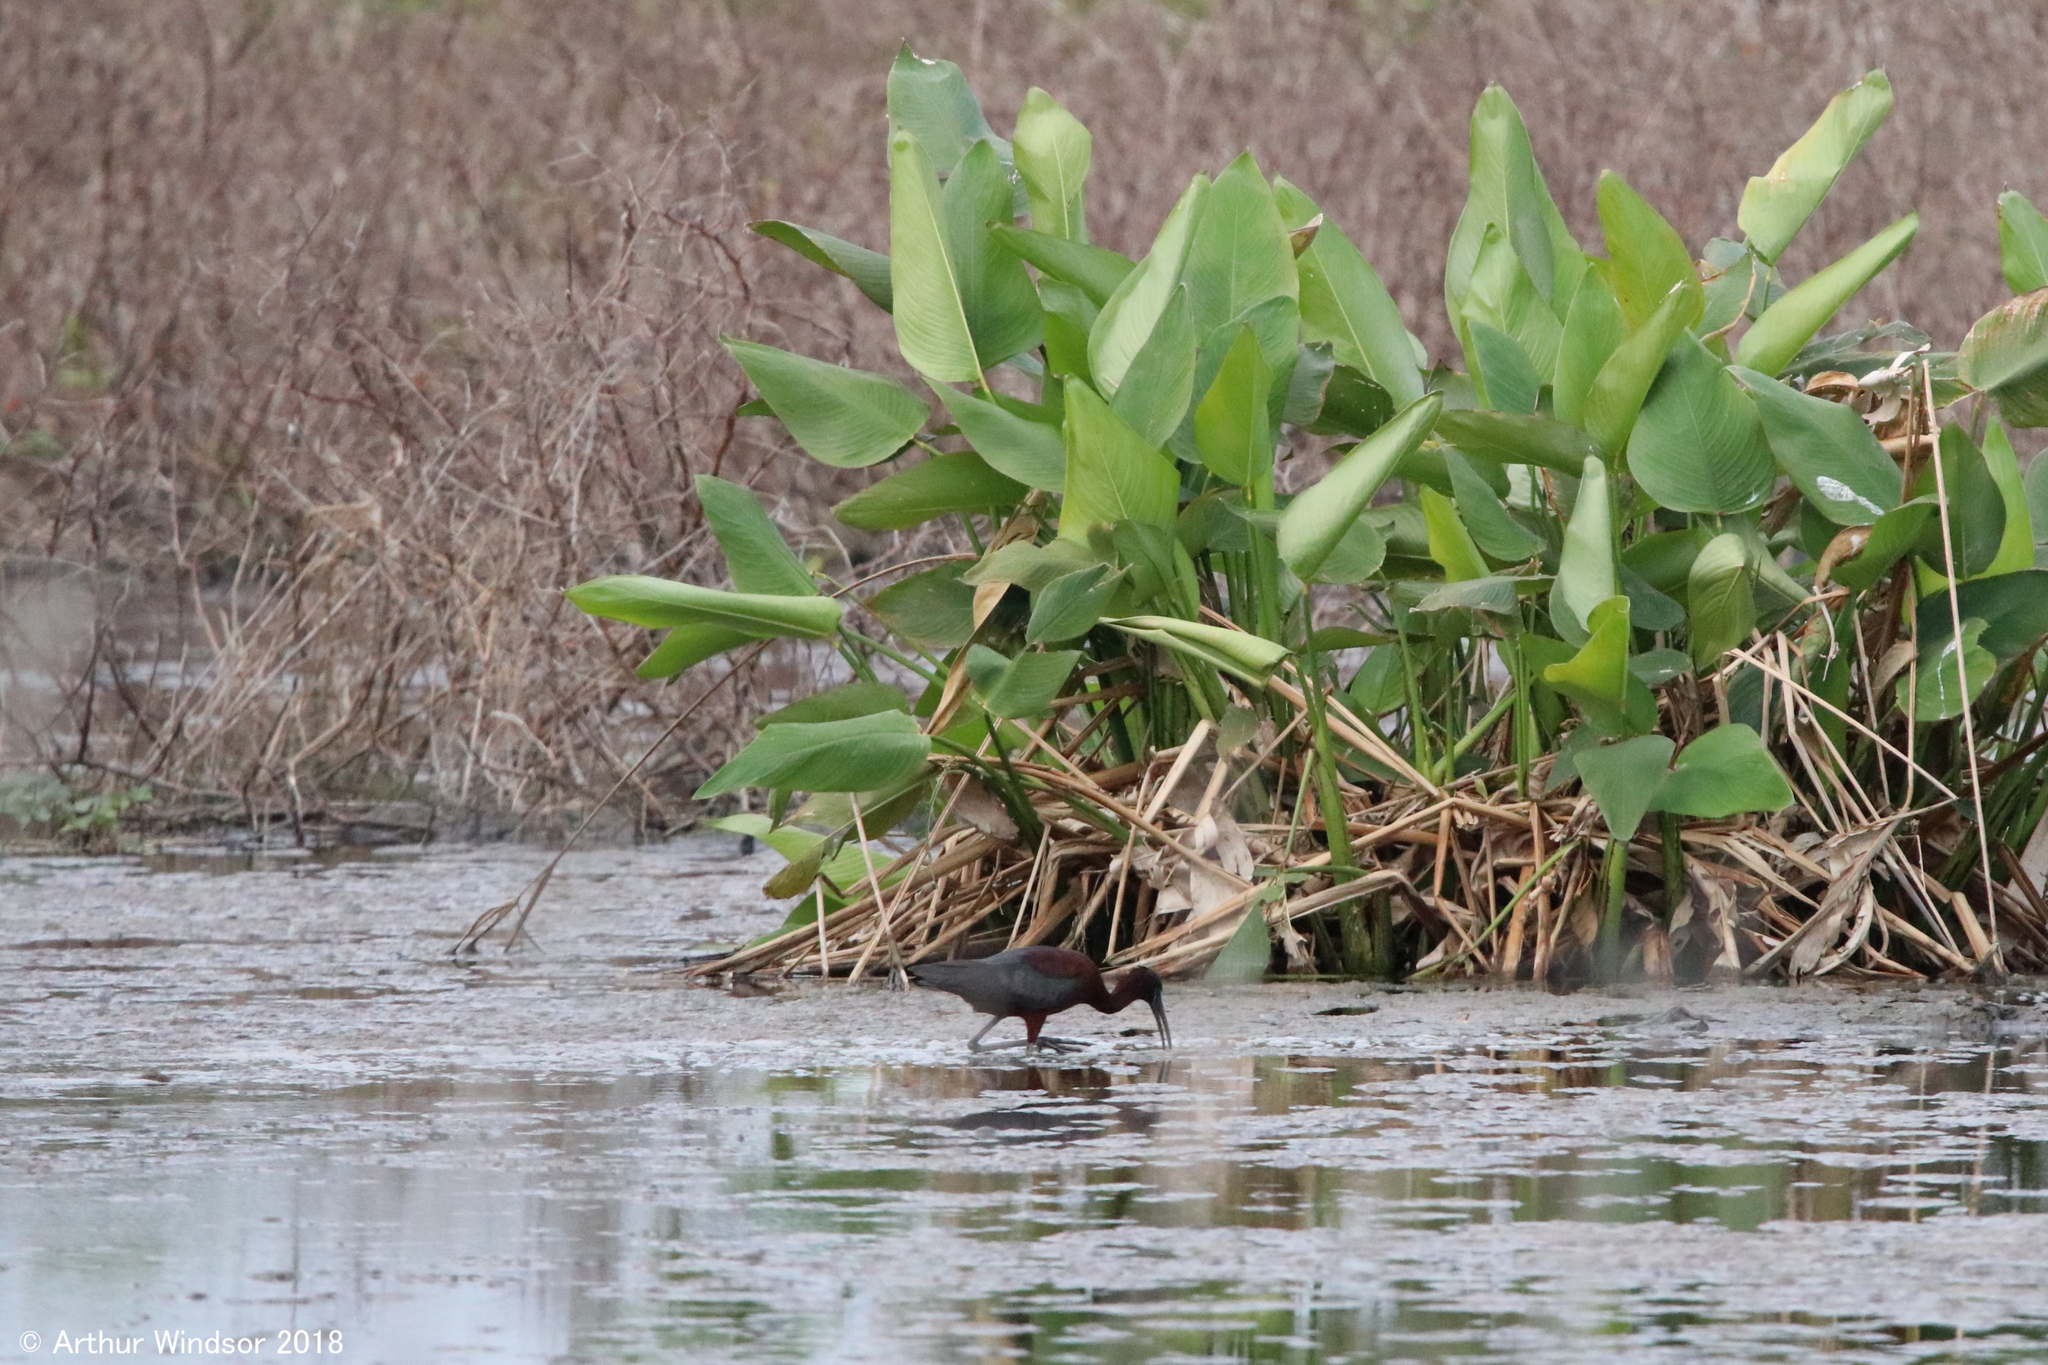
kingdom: Animalia
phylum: Chordata
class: Aves
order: Pelecaniformes
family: Threskiornithidae
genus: Plegadis
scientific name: Plegadis falcinellus
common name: Glossy ibis
